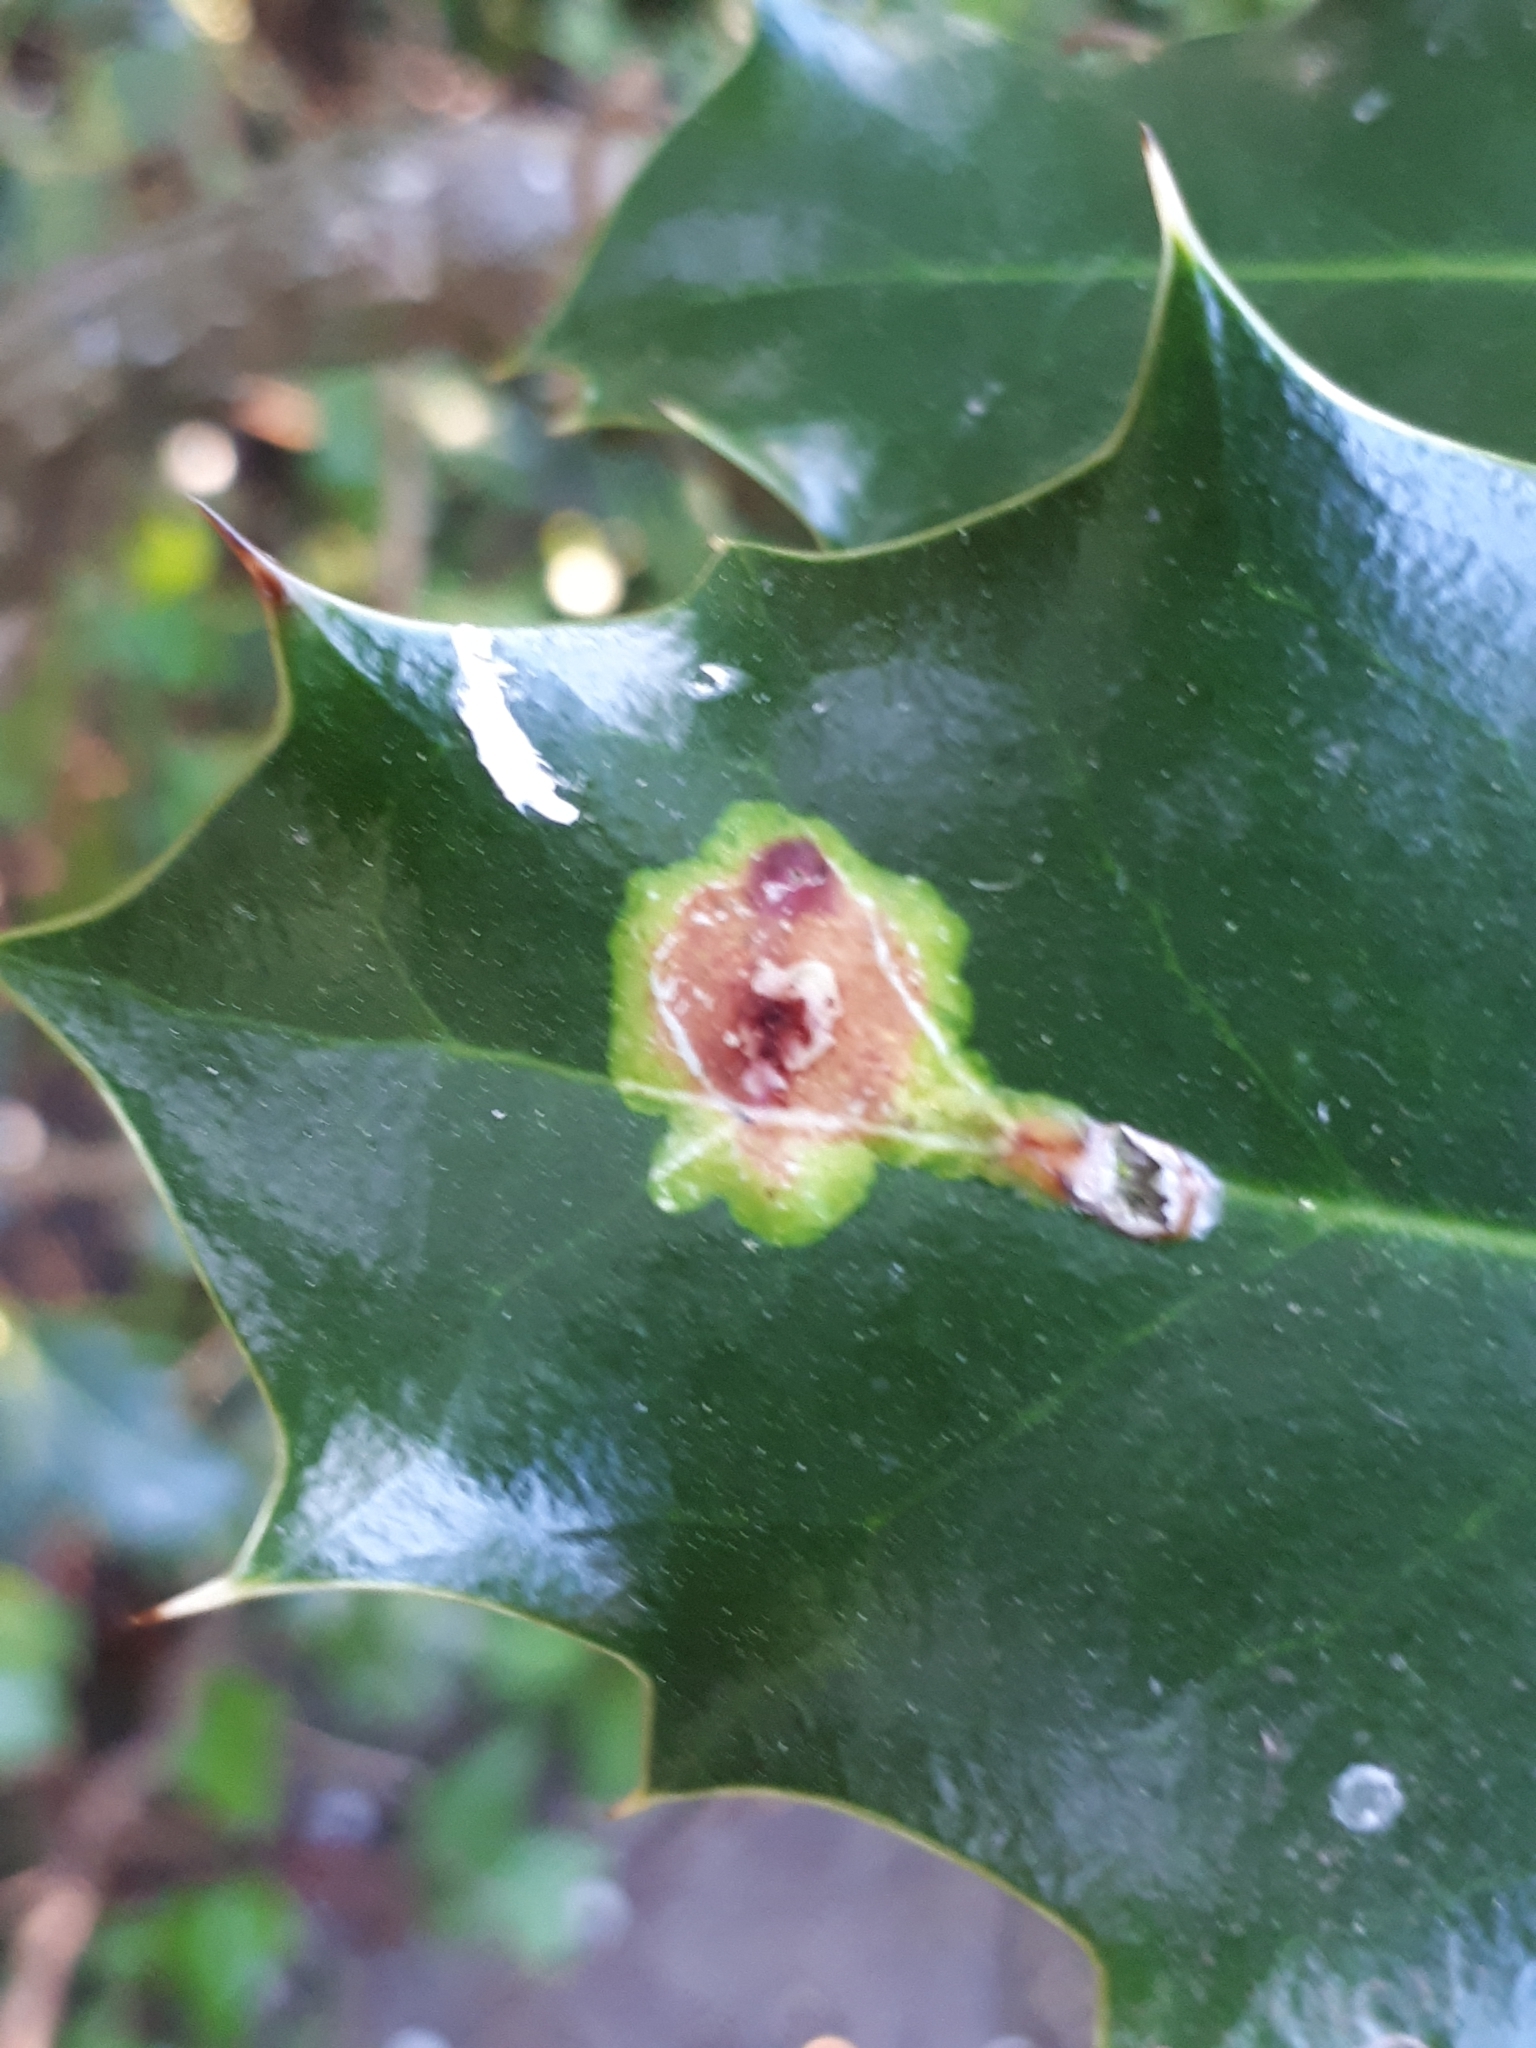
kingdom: Animalia
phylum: Arthropoda
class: Insecta
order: Diptera
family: Agromyzidae
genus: Phytomyza
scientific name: Phytomyza ilicis
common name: Holly leafminer
